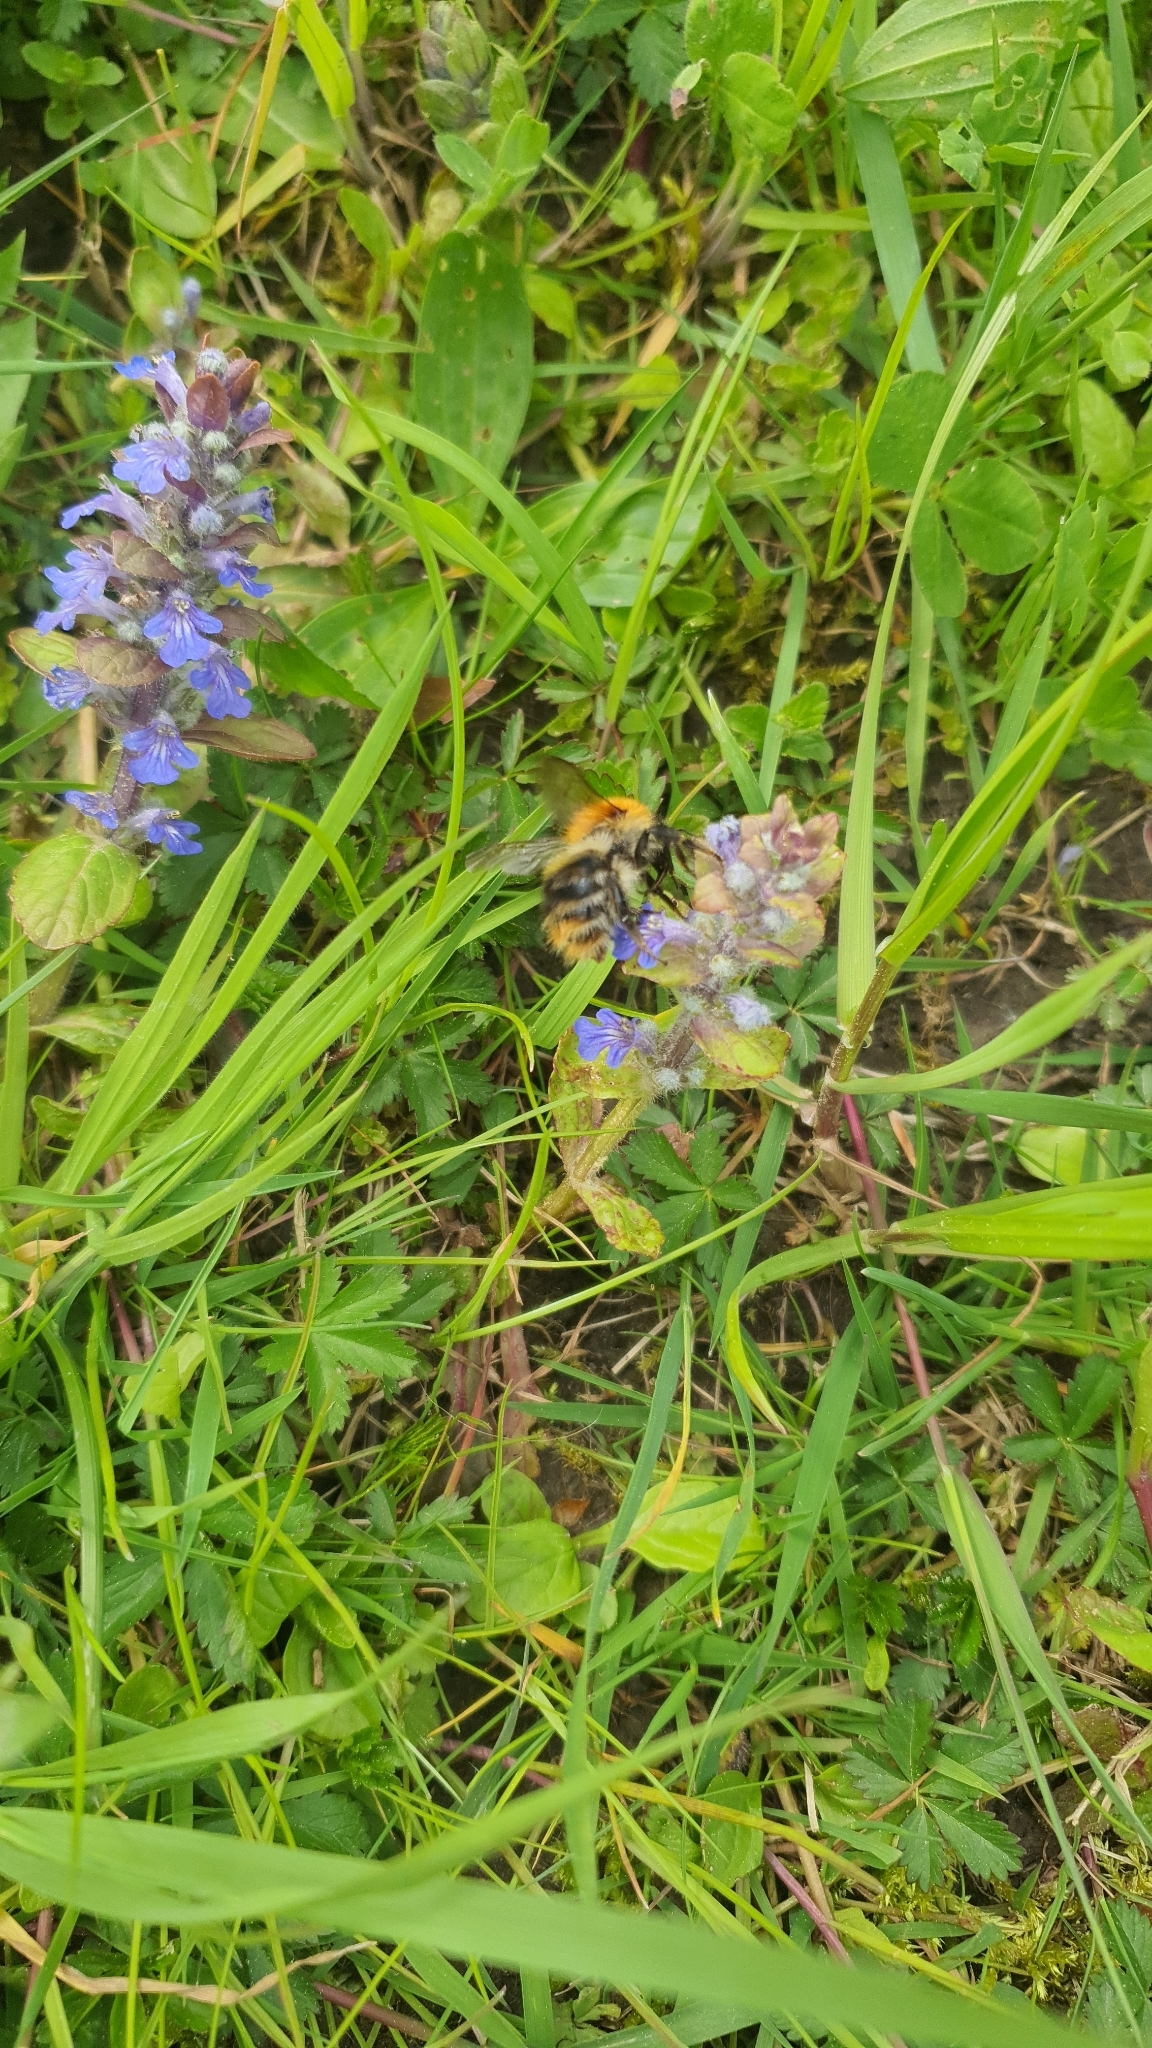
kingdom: Animalia
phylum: Arthropoda
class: Insecta
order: Hymenoptera
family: Apidae
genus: Bombus
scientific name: Bombus pascuorum
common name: Common carder bee
